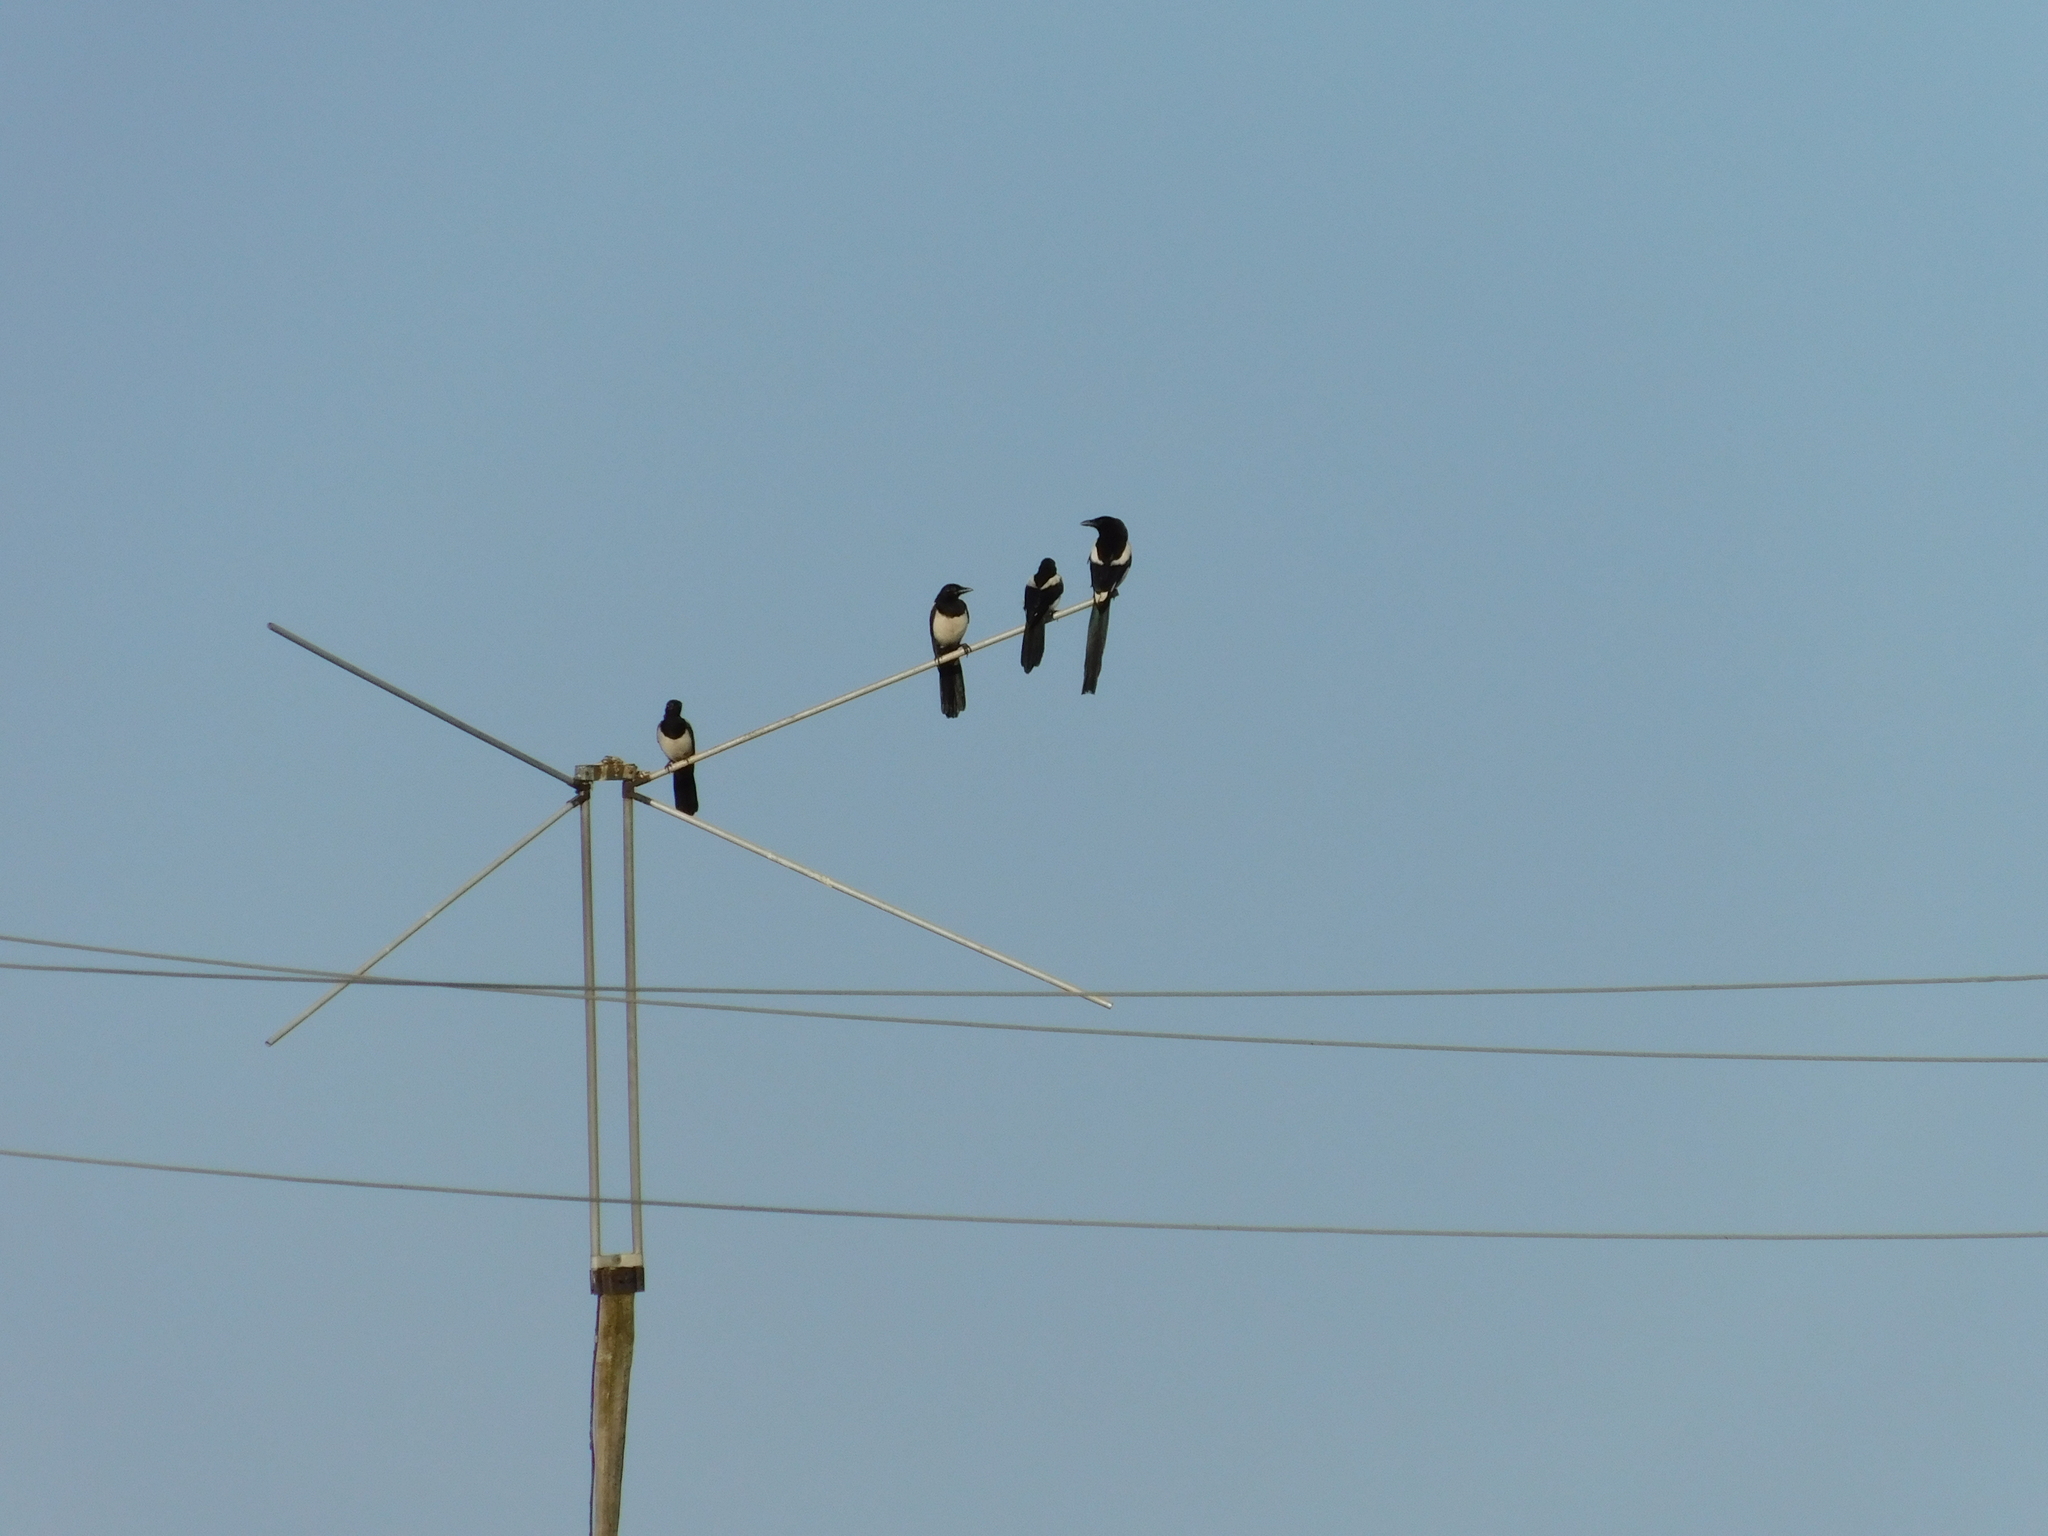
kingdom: Animalia
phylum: Chordata
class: Aves
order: Passeriformes
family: Corvidae
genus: Pica
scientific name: Pica pica
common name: Eurasian magpie
